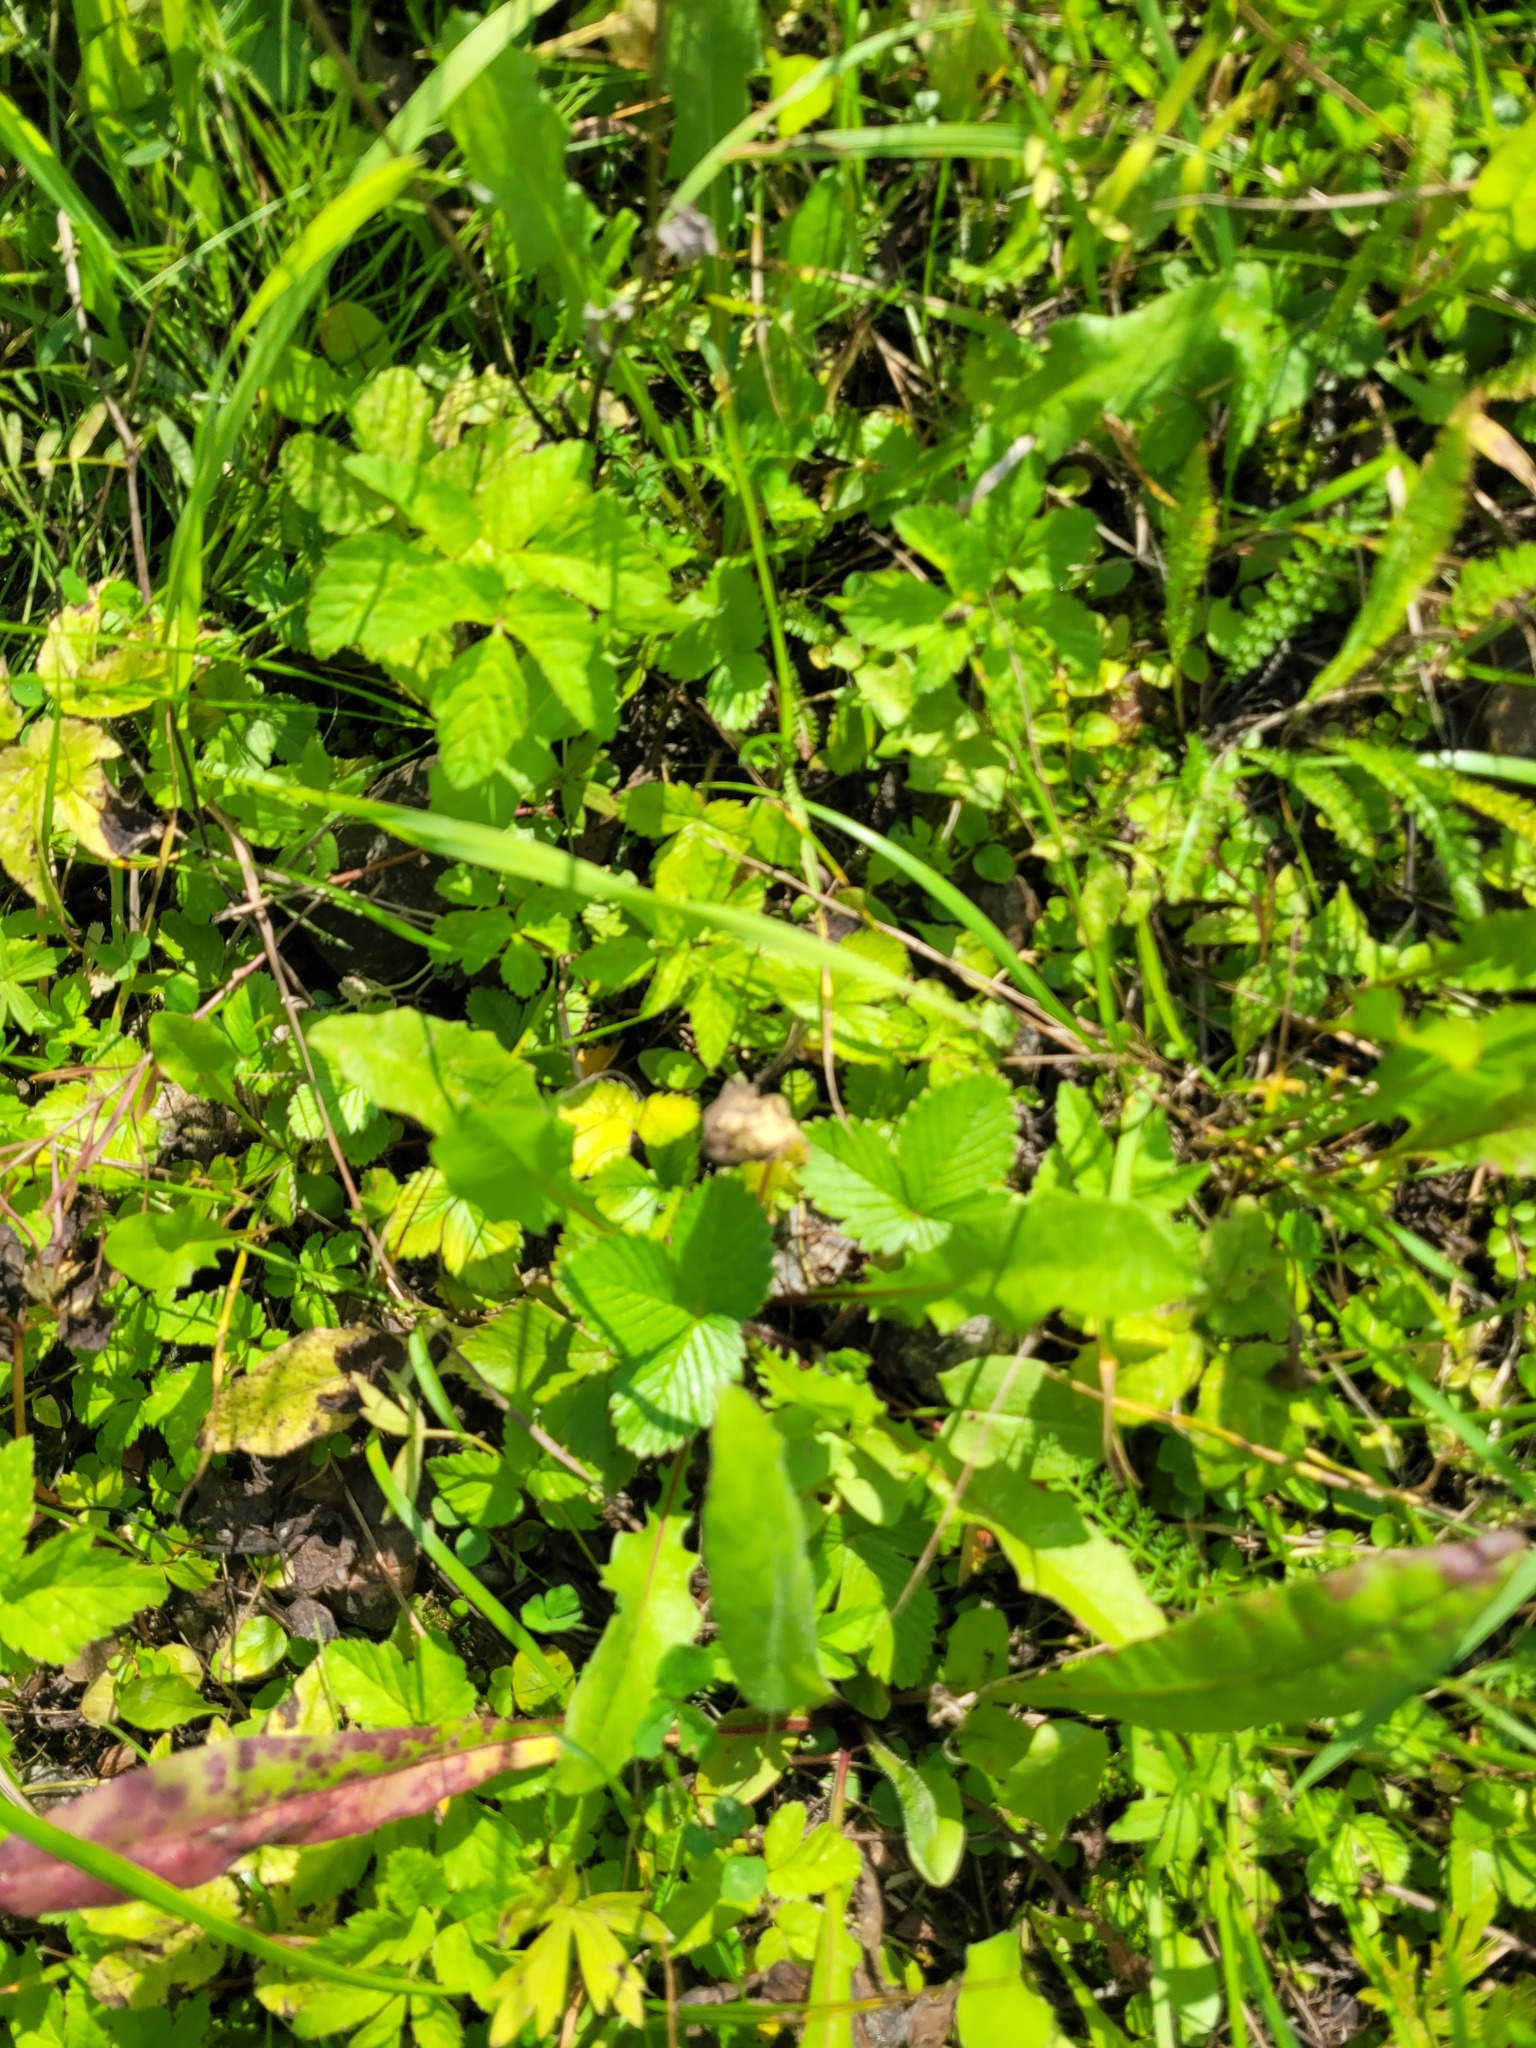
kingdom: Plantae
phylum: Tracheophyta
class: Magnoliopsida
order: Rosales
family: Rosaceae
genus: Fragaria
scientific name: Fragaria vesca
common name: Wild strawberry
